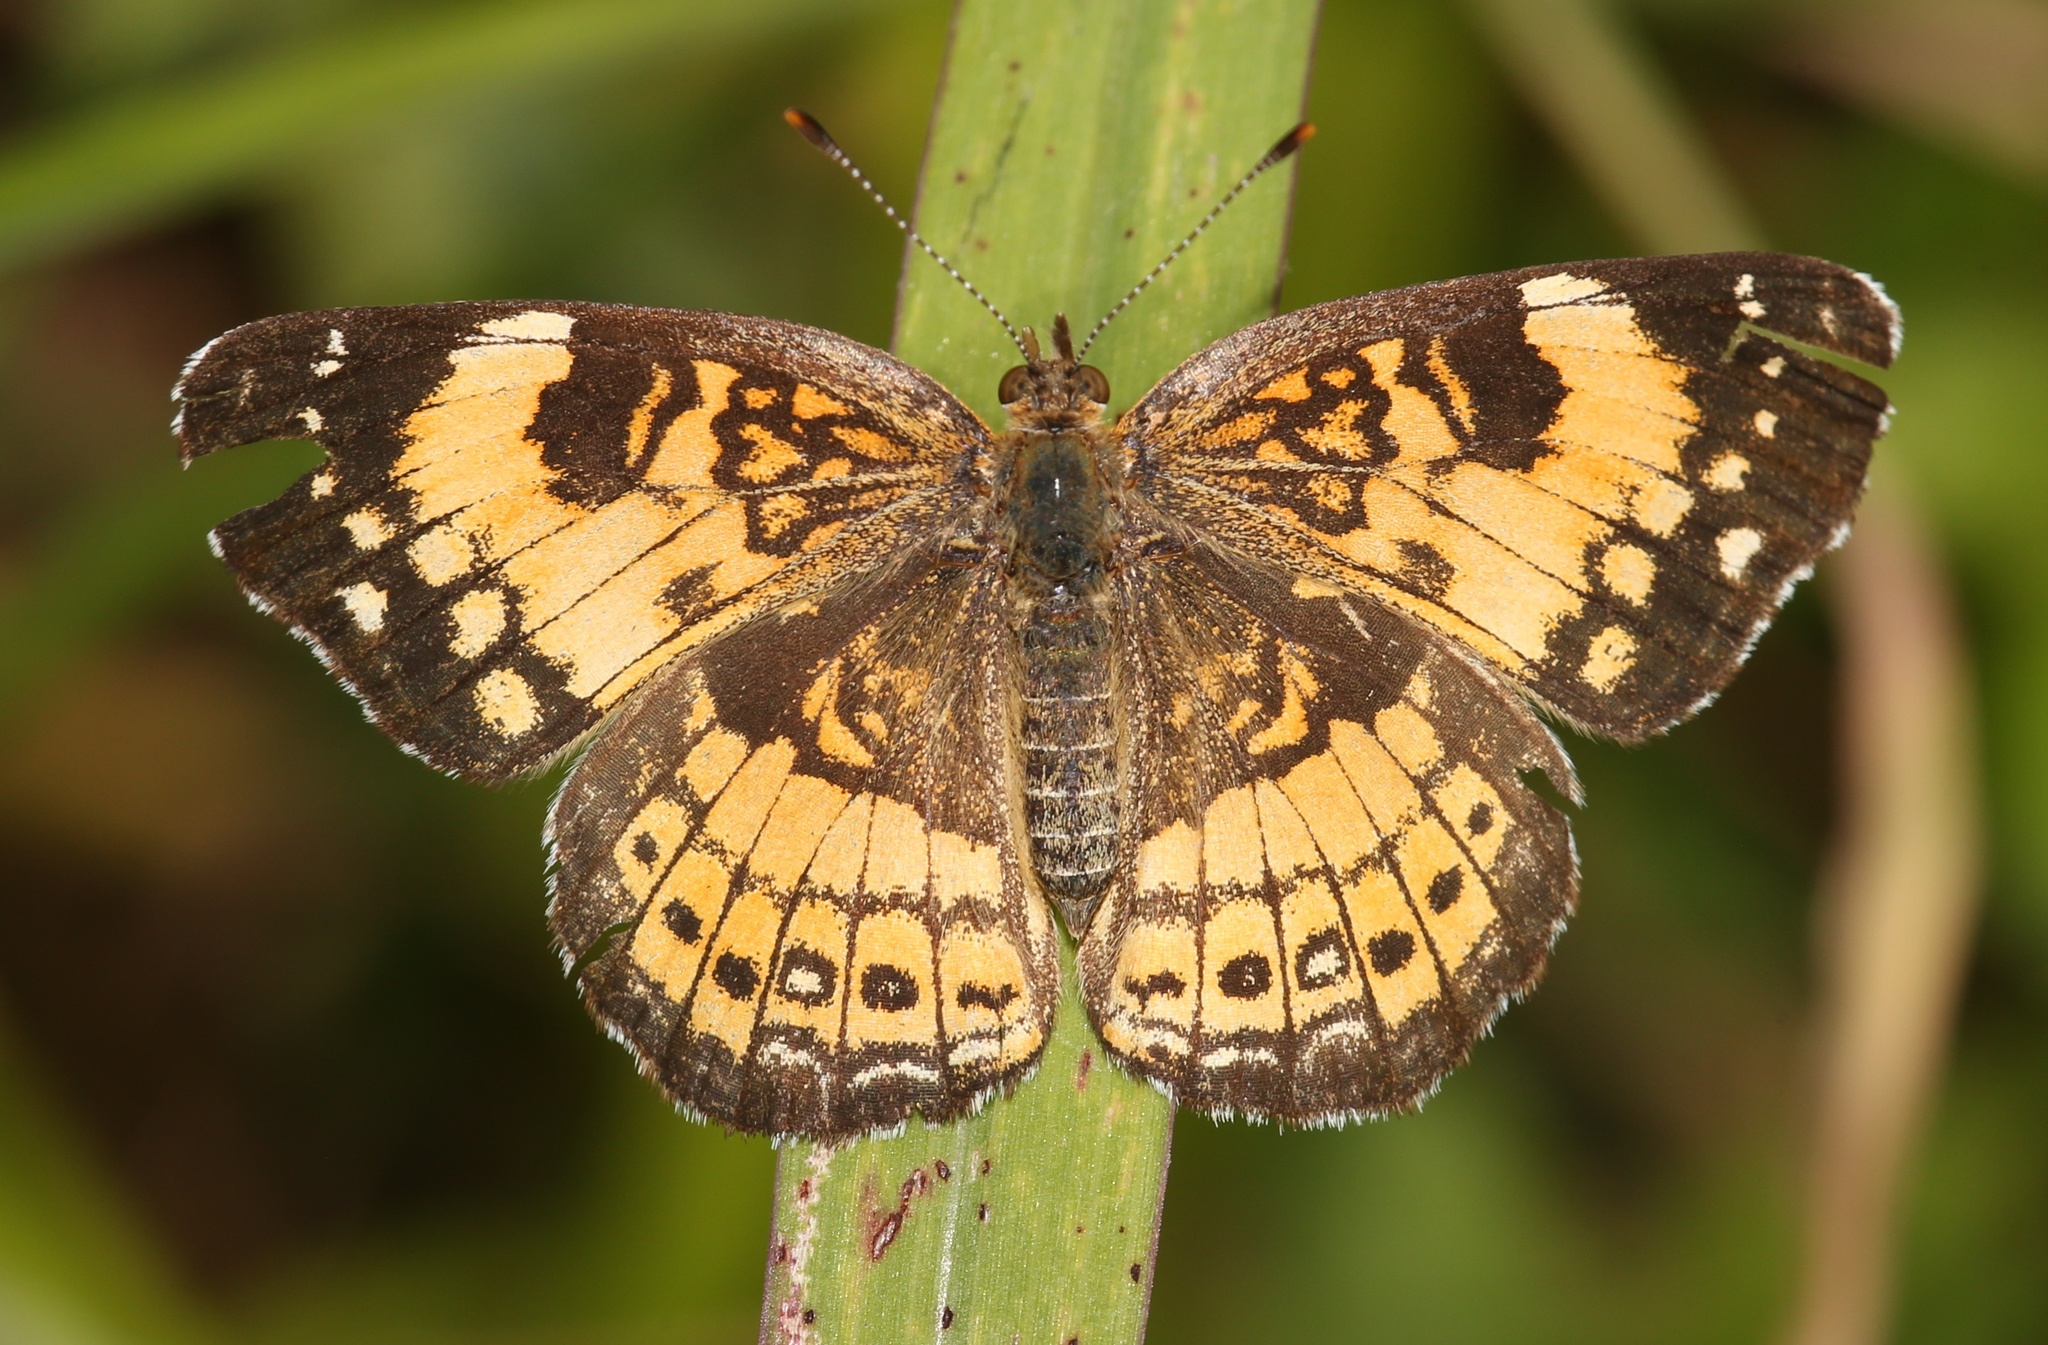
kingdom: Animalia
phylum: Arthropoda
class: Insecta
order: Lepidoptera
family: Nymphalidae
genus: Chlosyne
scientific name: Chlosyne nycteis
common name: Silvery checkerspot
